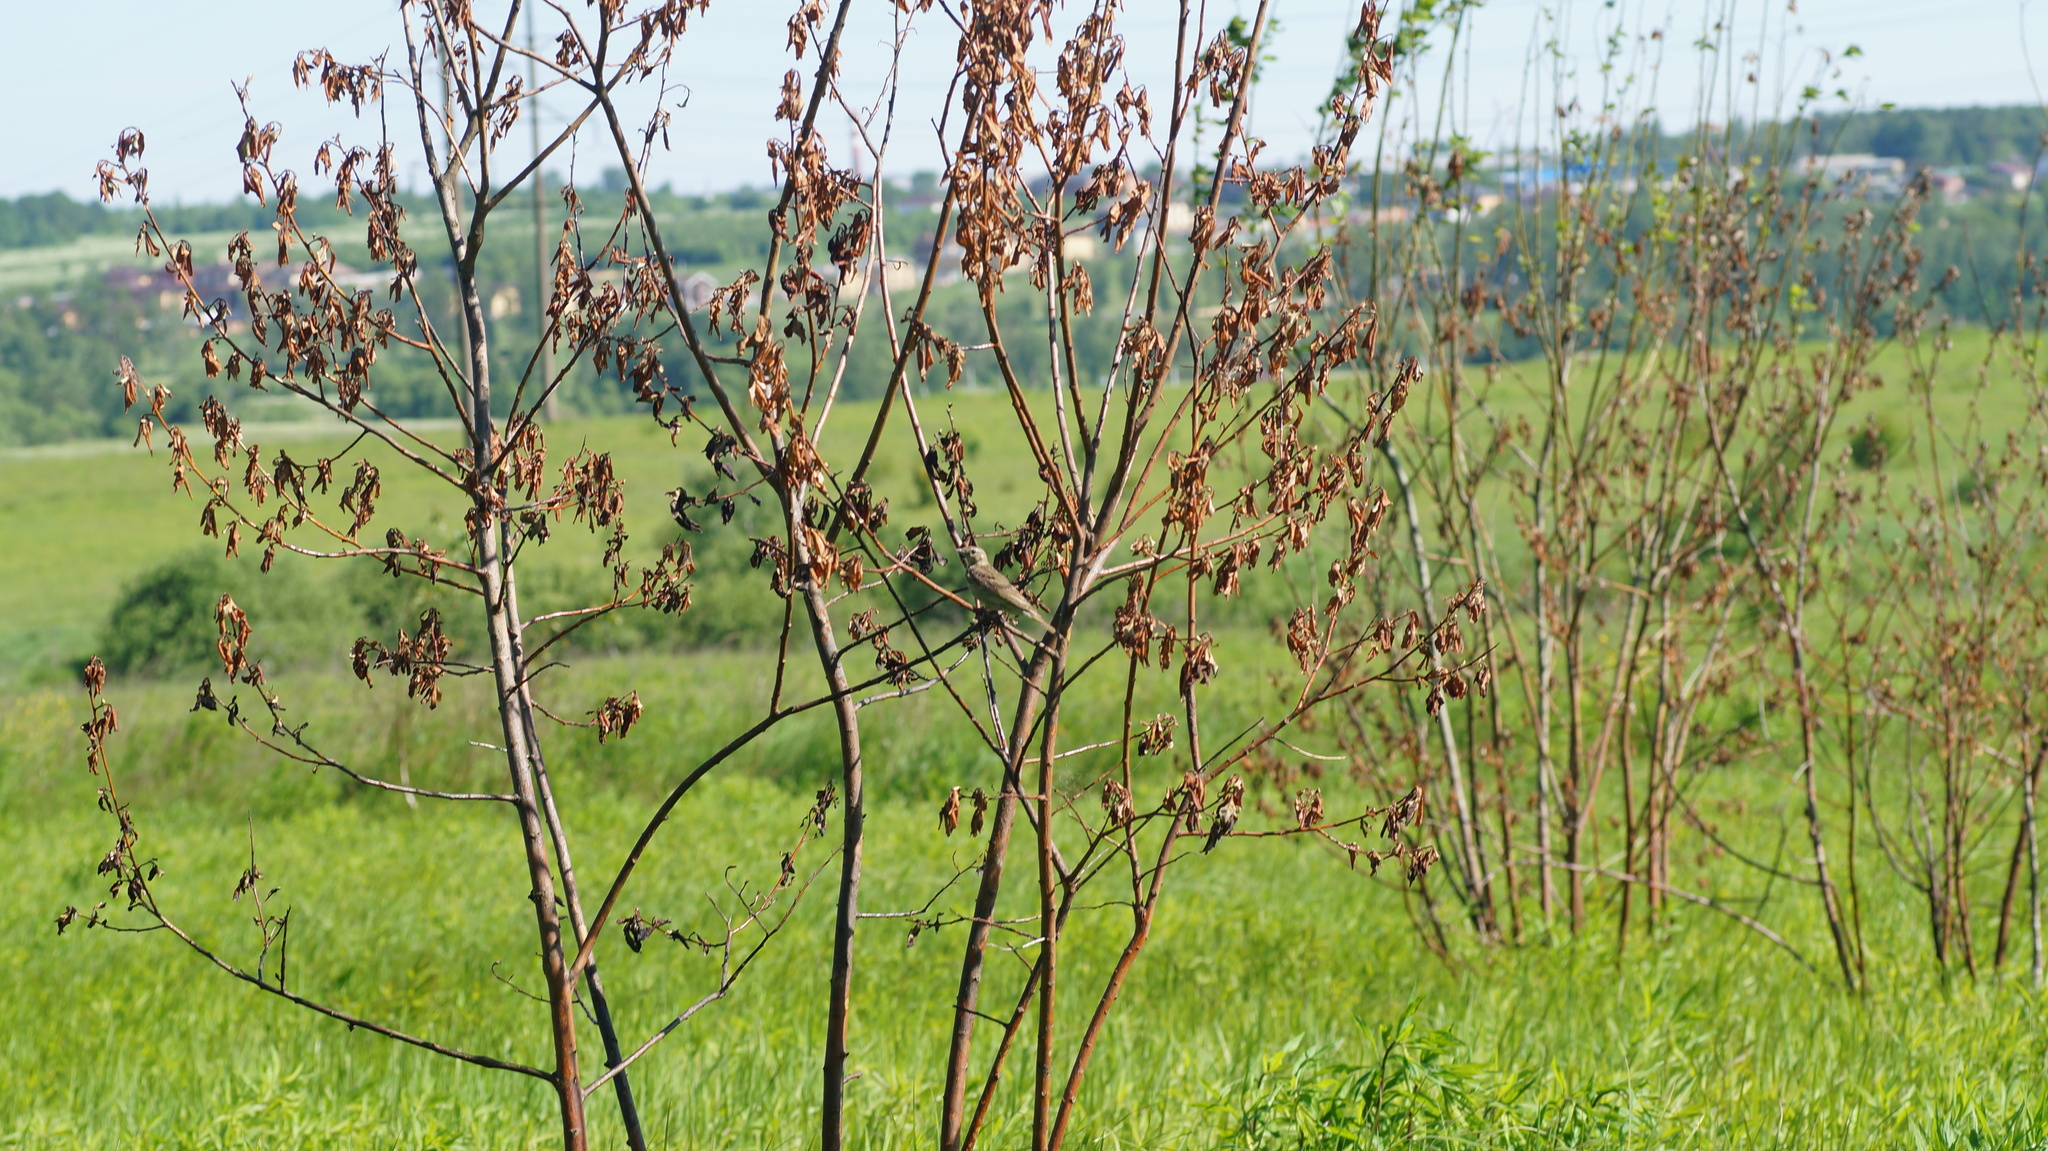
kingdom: Animalia
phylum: Chordata
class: Aves
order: Passeriformes
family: Motacillidae
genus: Anthus
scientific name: Anthus trivialis
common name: Tree pipit
